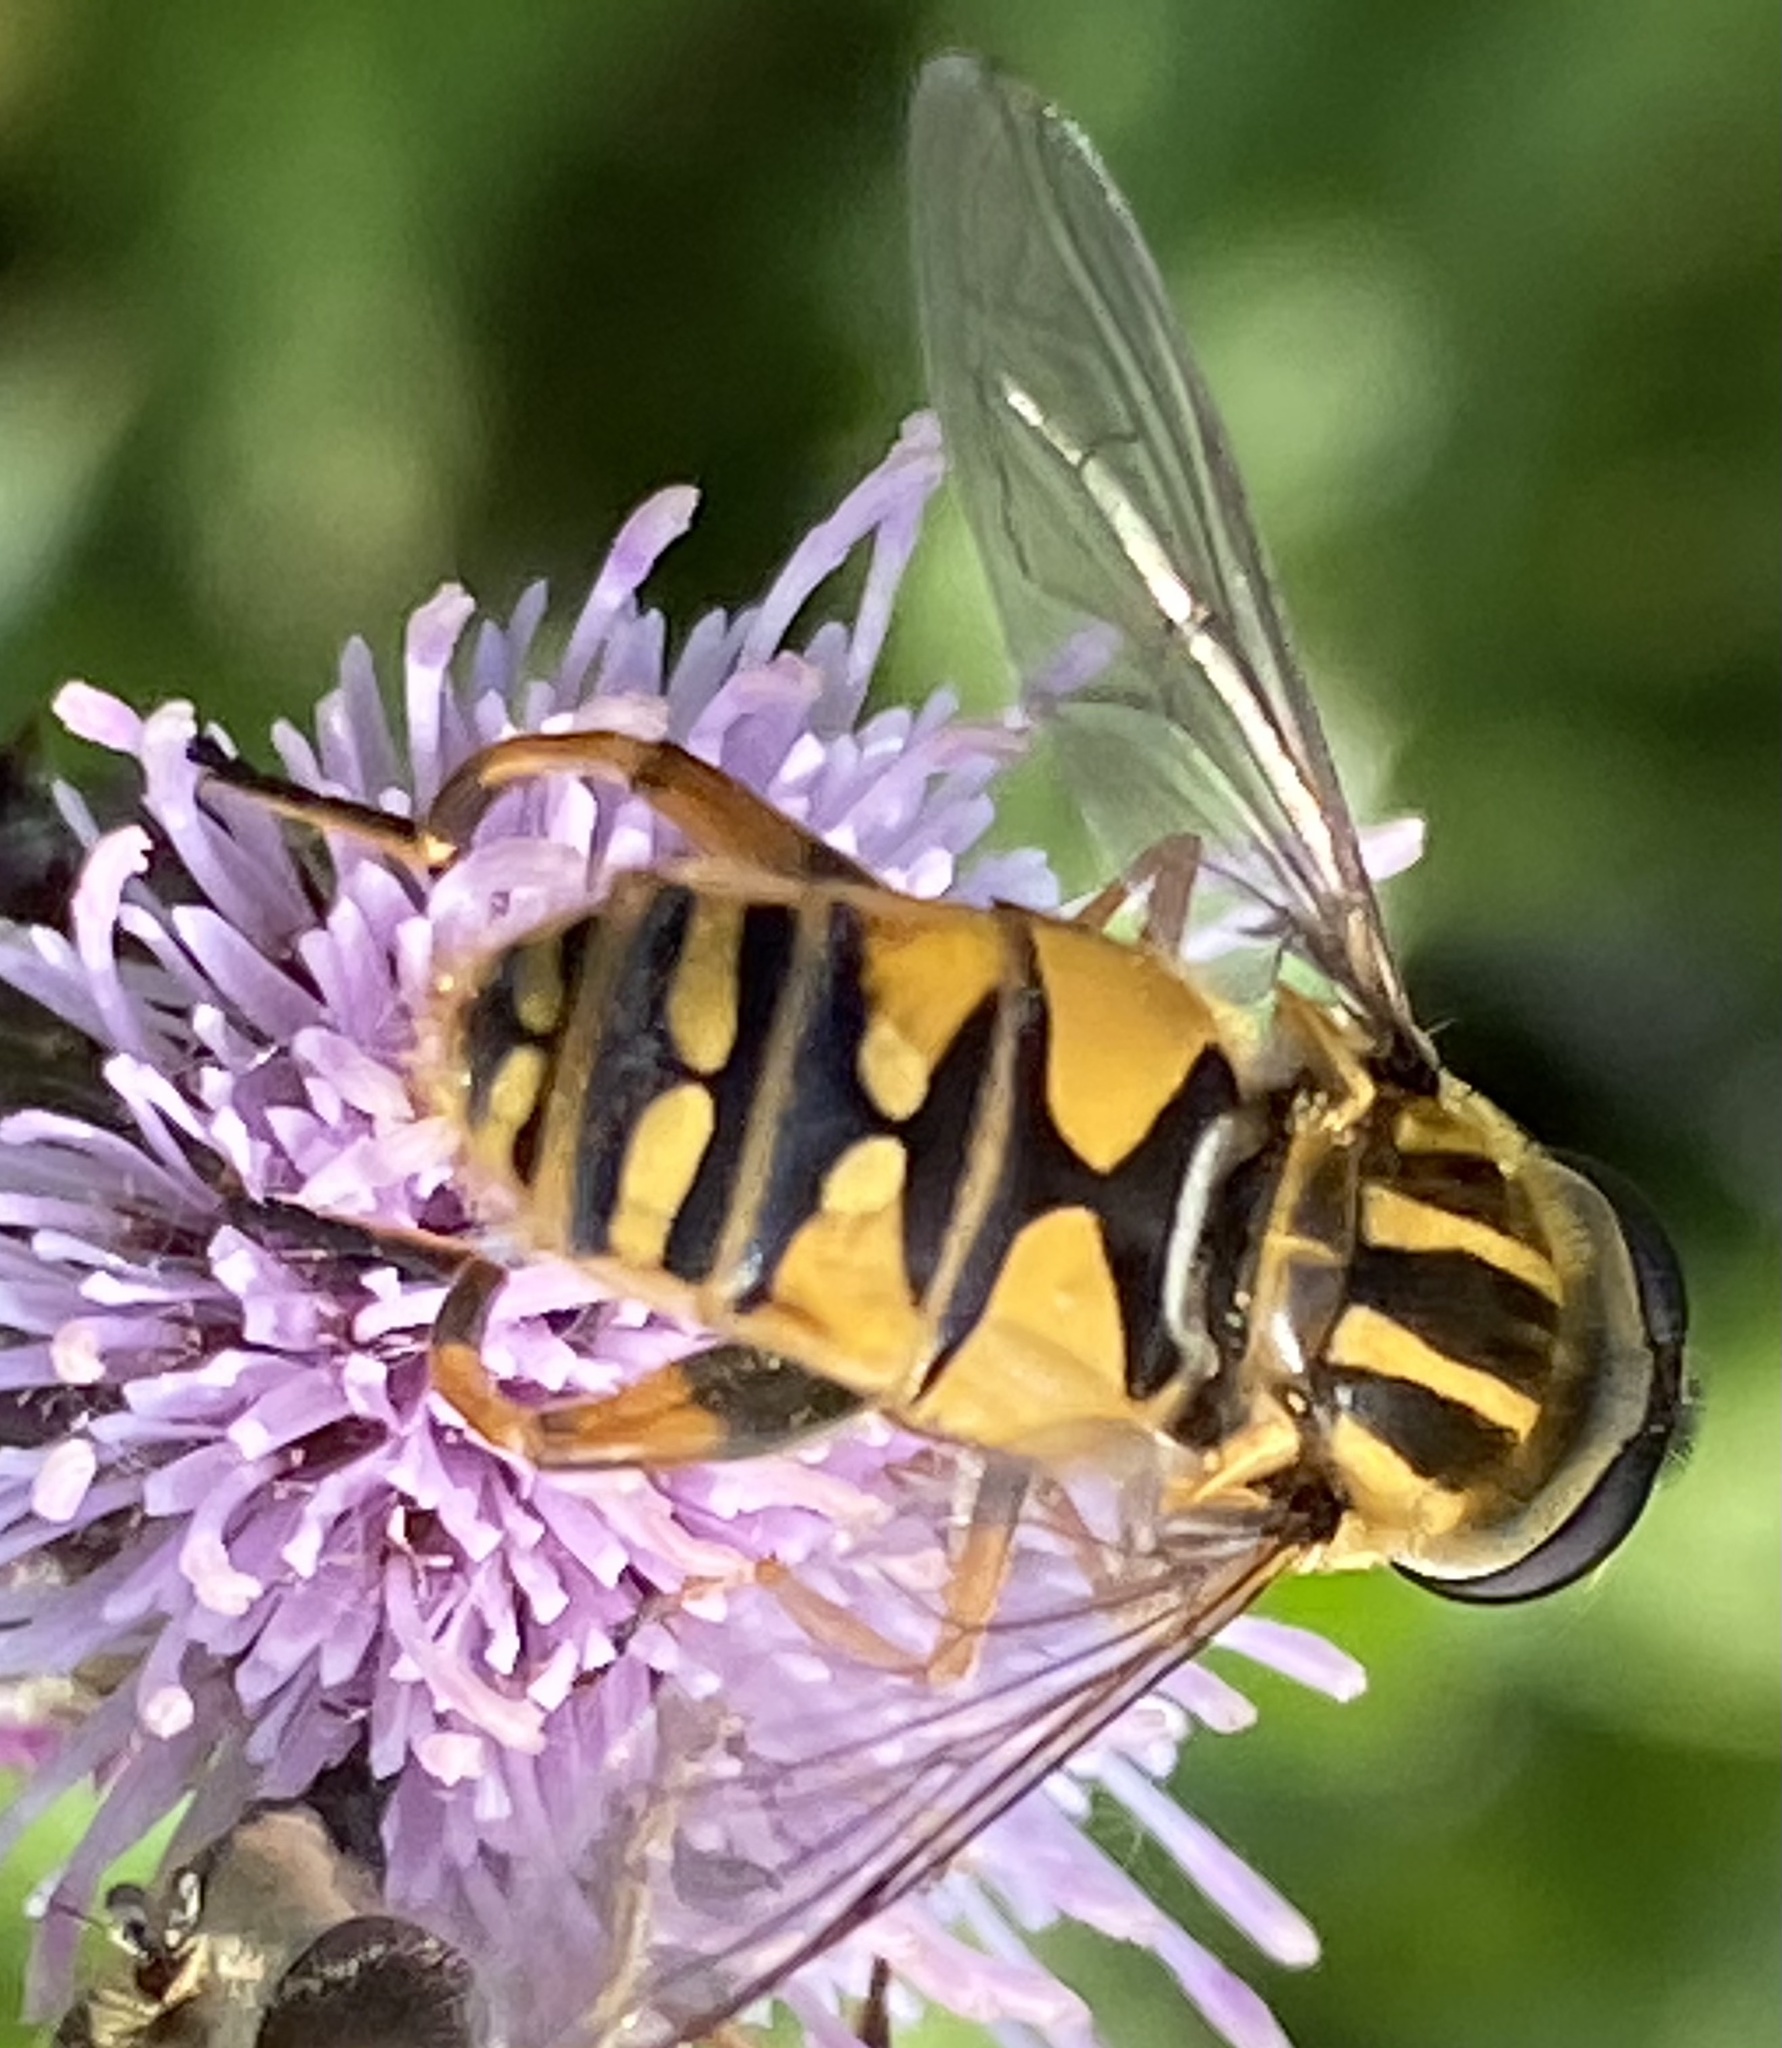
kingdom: Animalia
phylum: Arthropoda
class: Insecta
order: Diptera
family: Syrphidae
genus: Helophilus
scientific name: Helophilus pendulus
